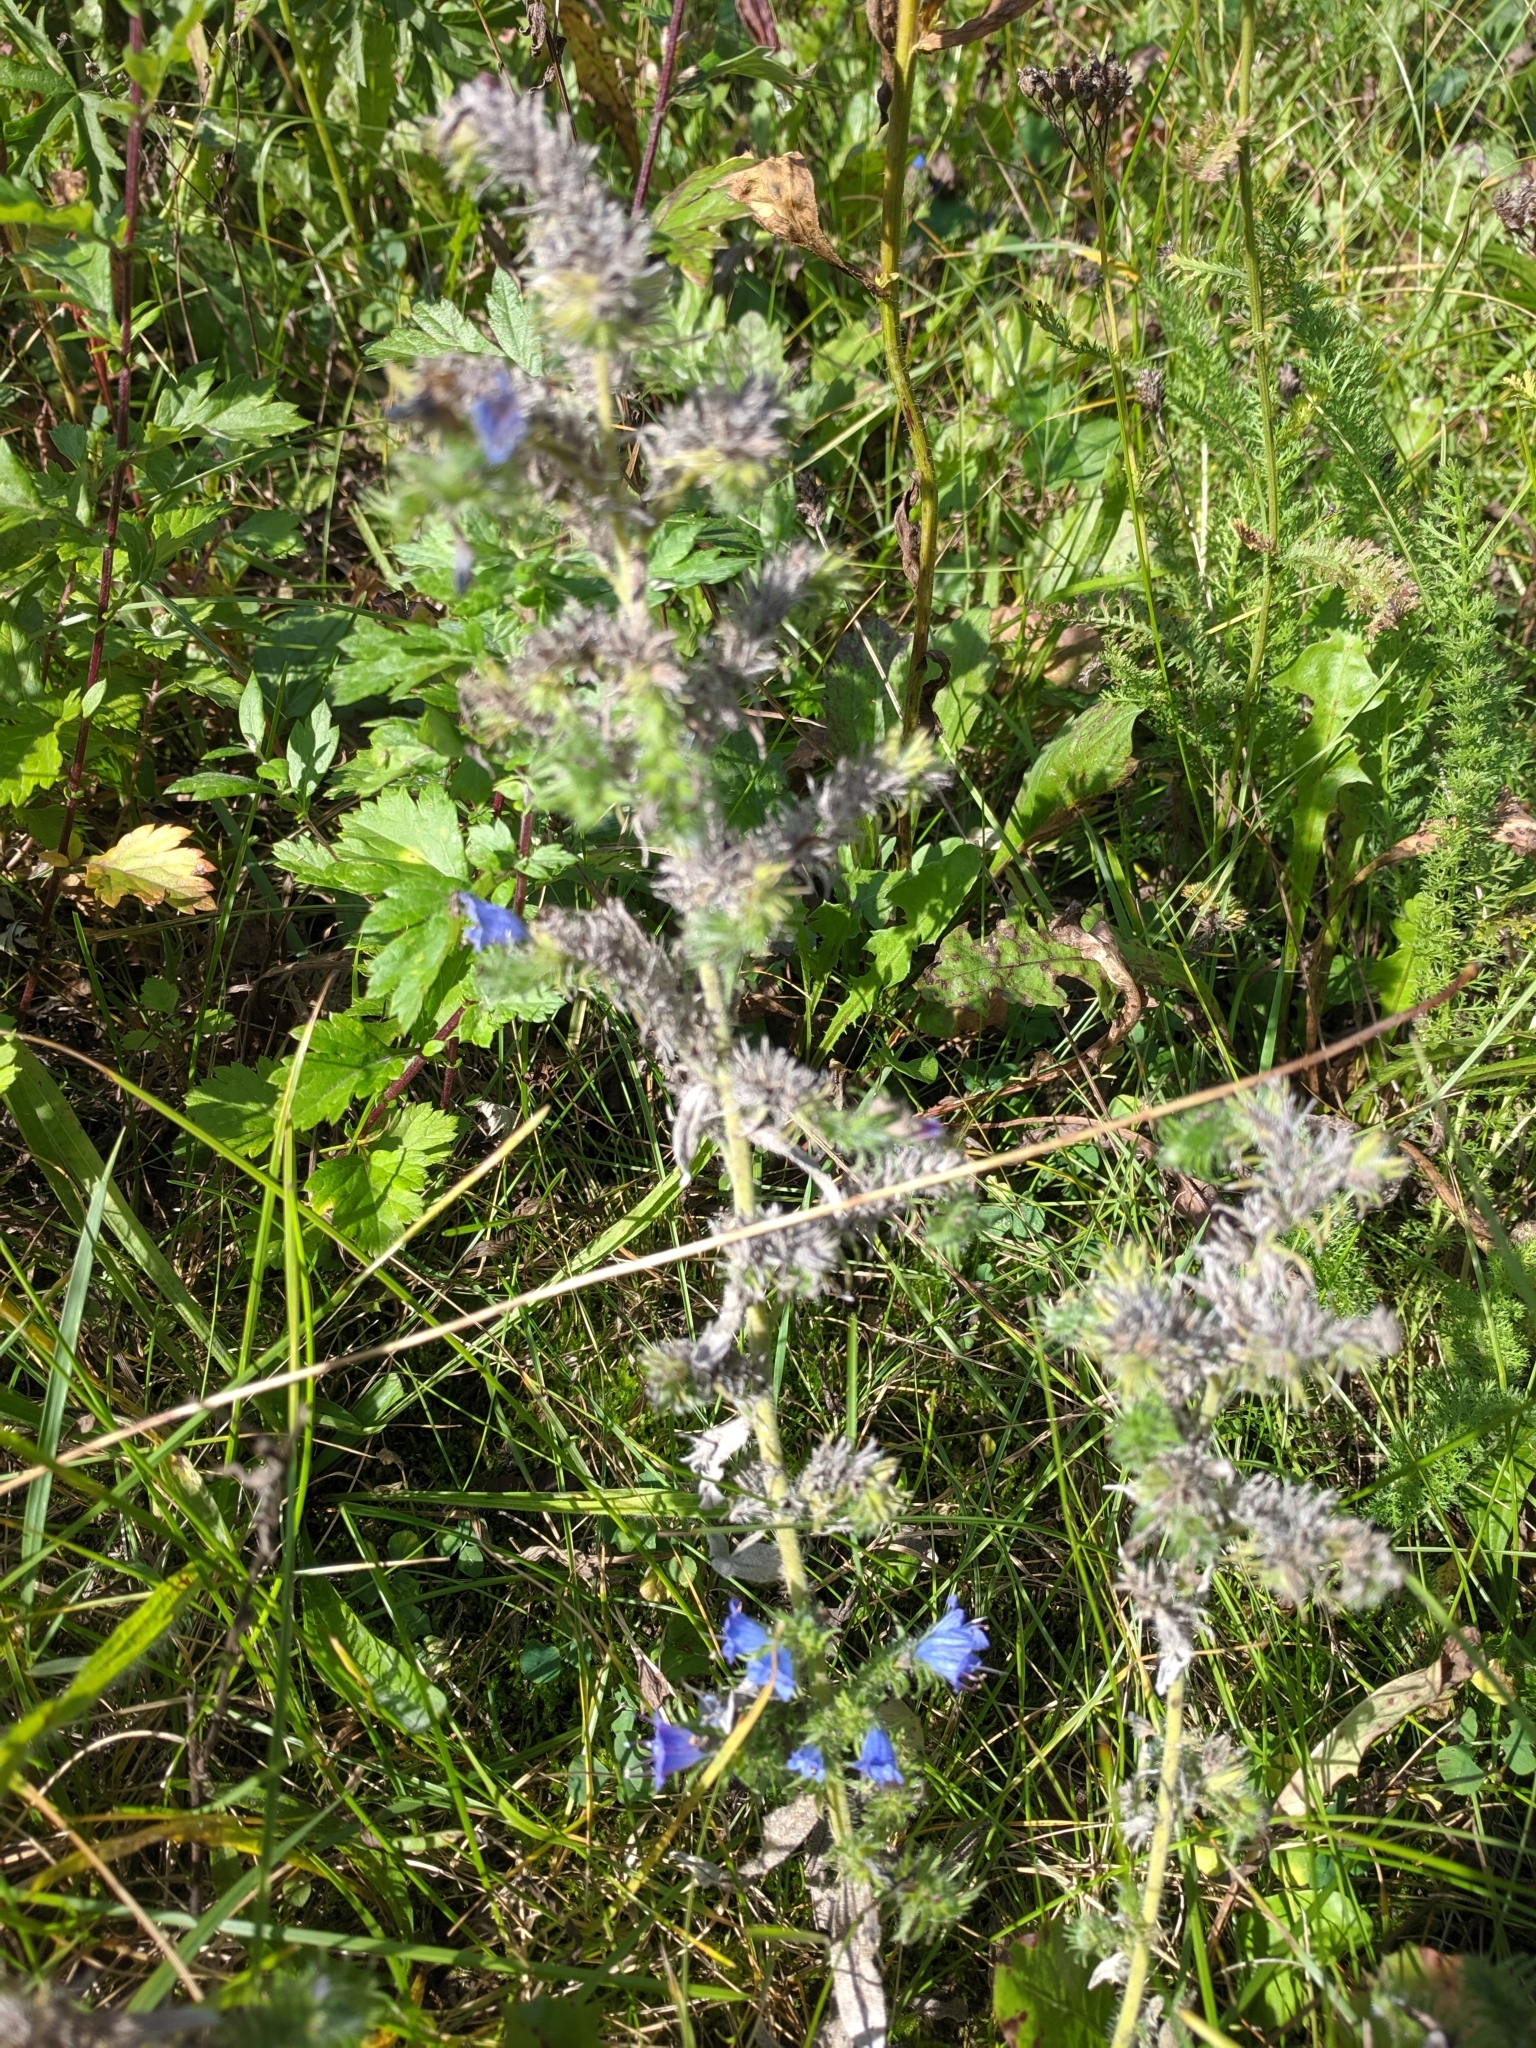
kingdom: Plantae
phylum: Tracheophyta
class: Magnoliopsida
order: Boraginales
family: Boraginaceae
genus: Echium
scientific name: Echium vulgare
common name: Common viper's bugloss
